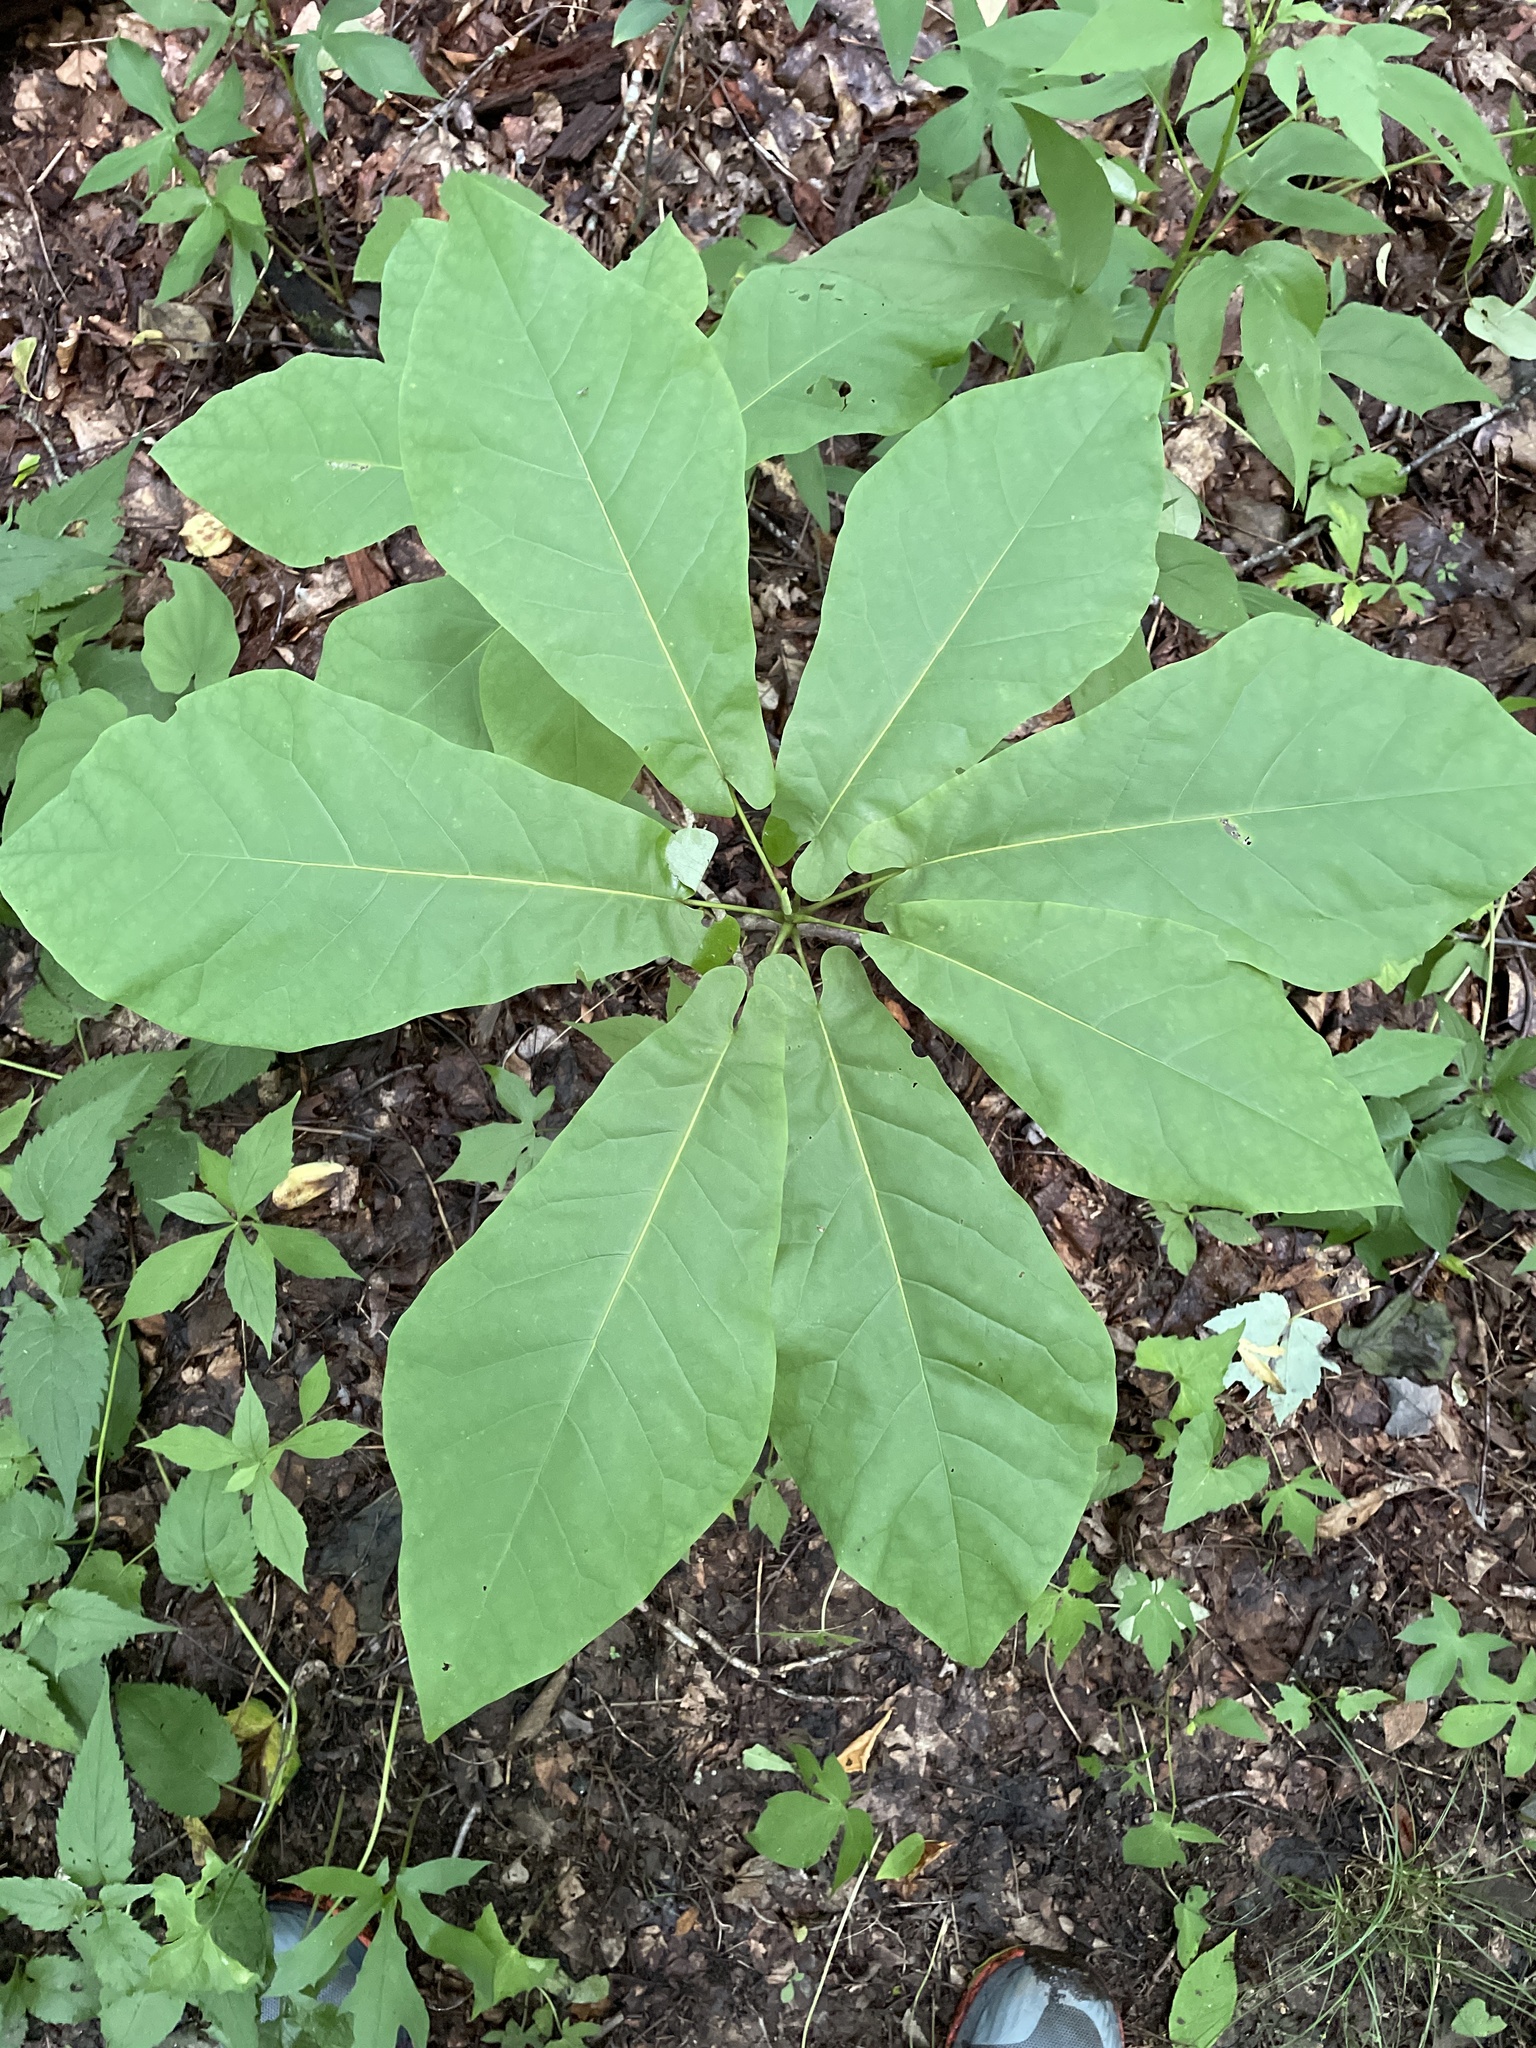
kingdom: Plantae
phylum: Tracheophyta
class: Magnoliopsida
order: Magnoliales
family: Magnoliaceae
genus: Magnolia
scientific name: Magnolia fraseri
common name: Fraser's magnolia
